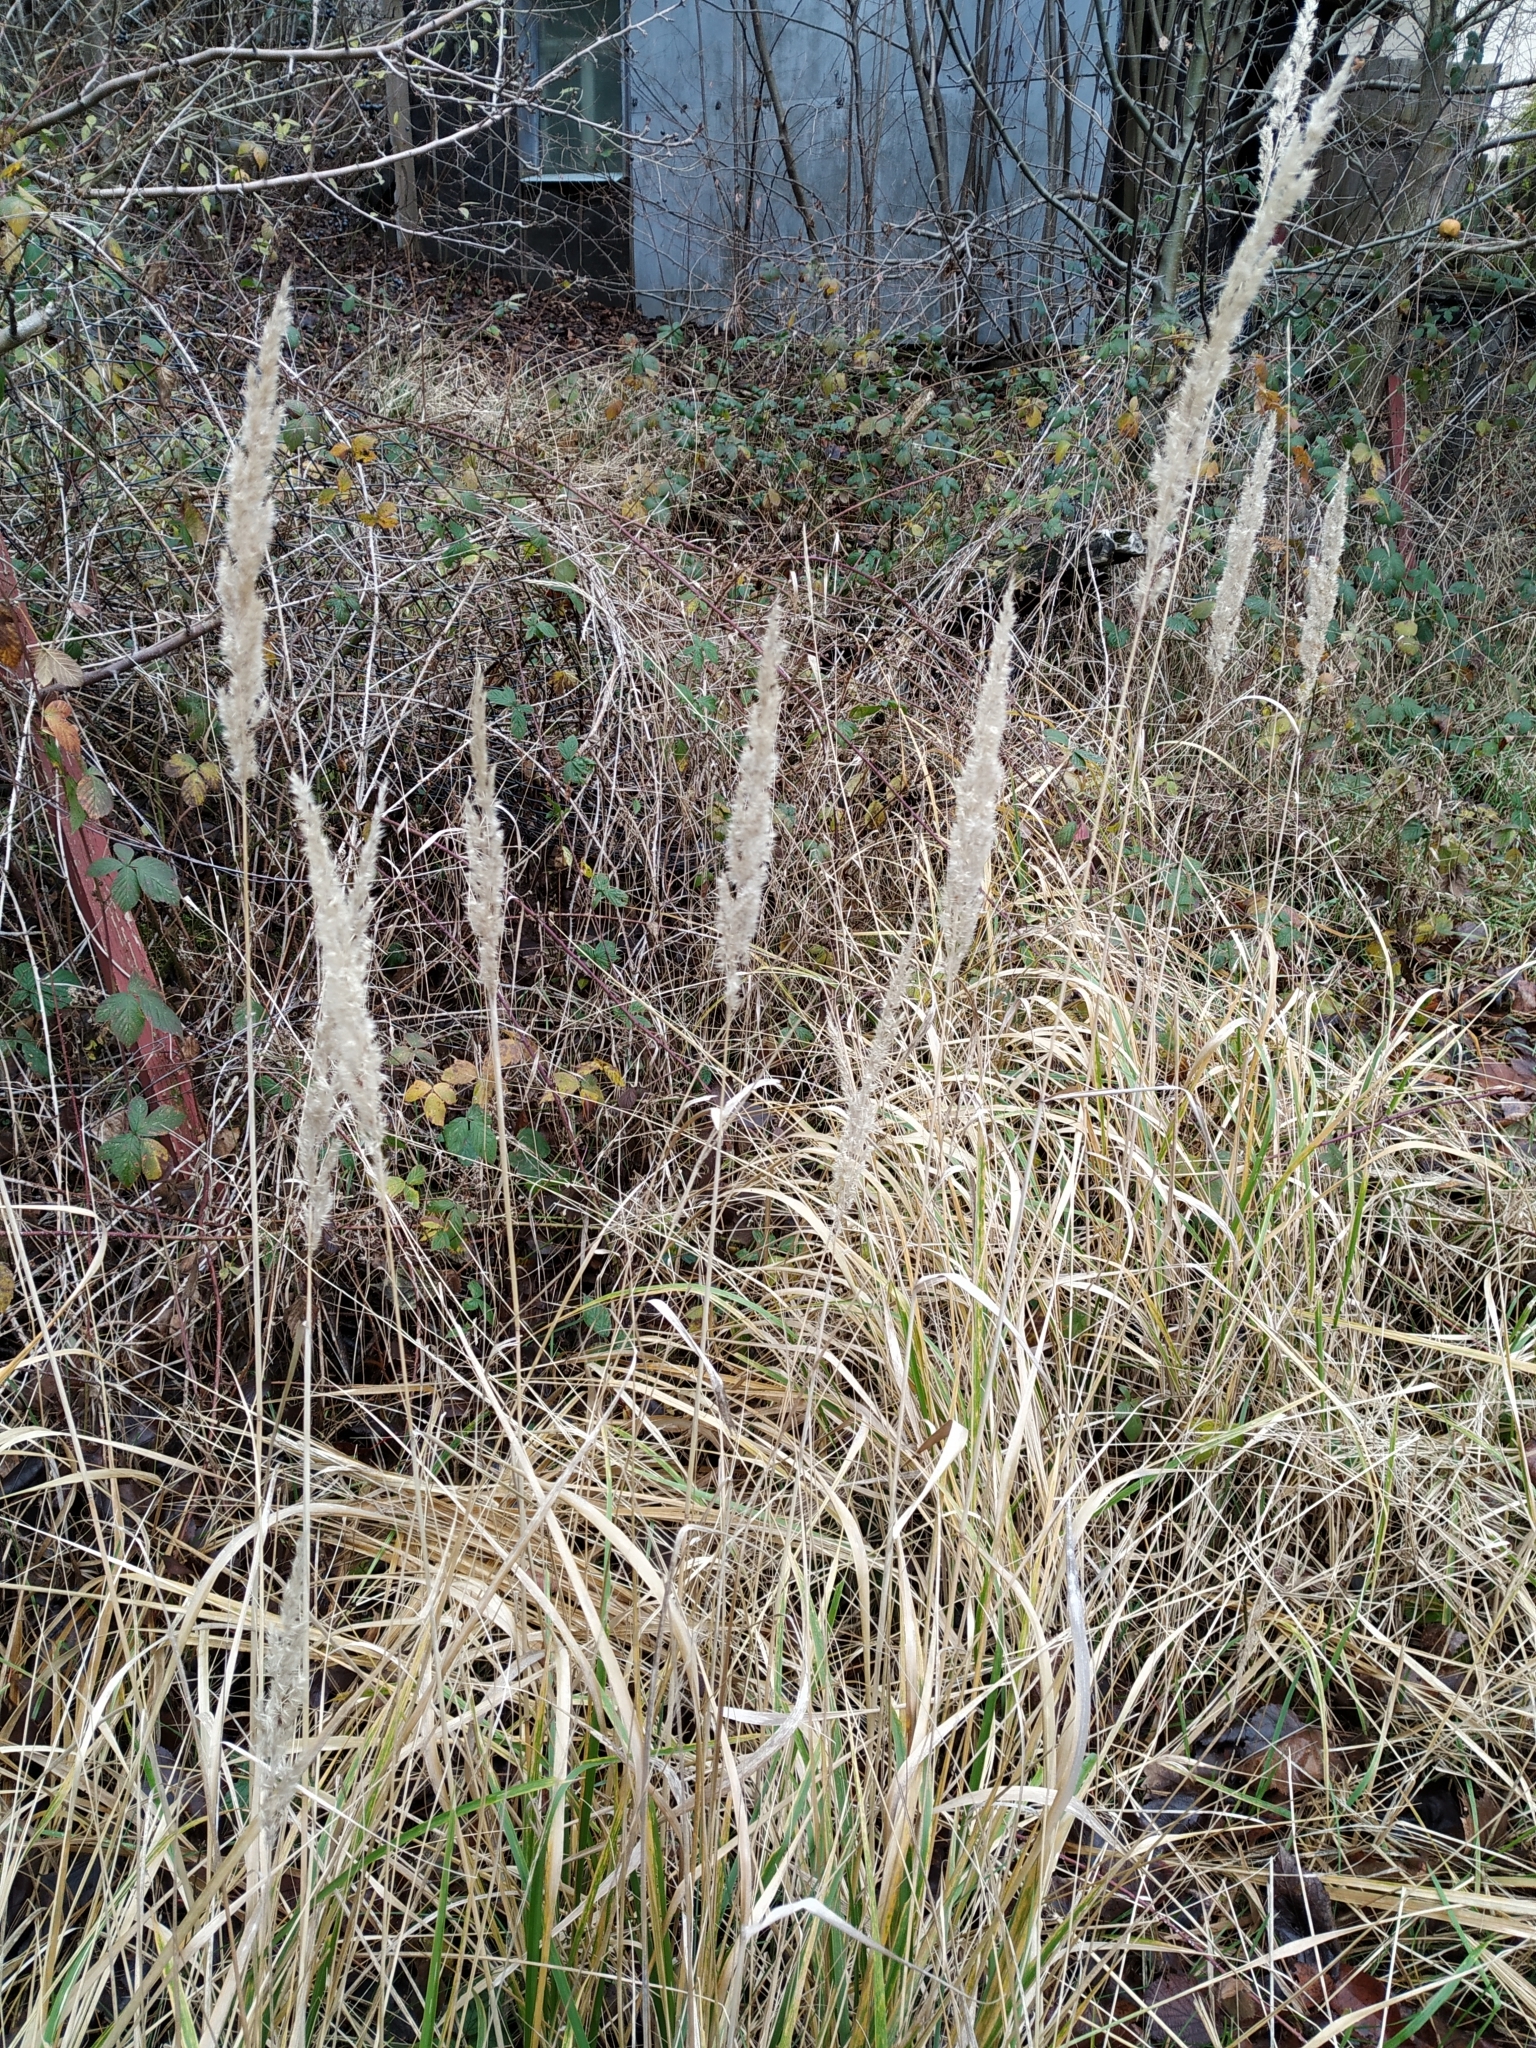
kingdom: Plantae
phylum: Tracheophyta
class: Liliopsida
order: Poales
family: Poaceae
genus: Calamagrostis
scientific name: Calamagrostis epigejos
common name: Wood small-reed
